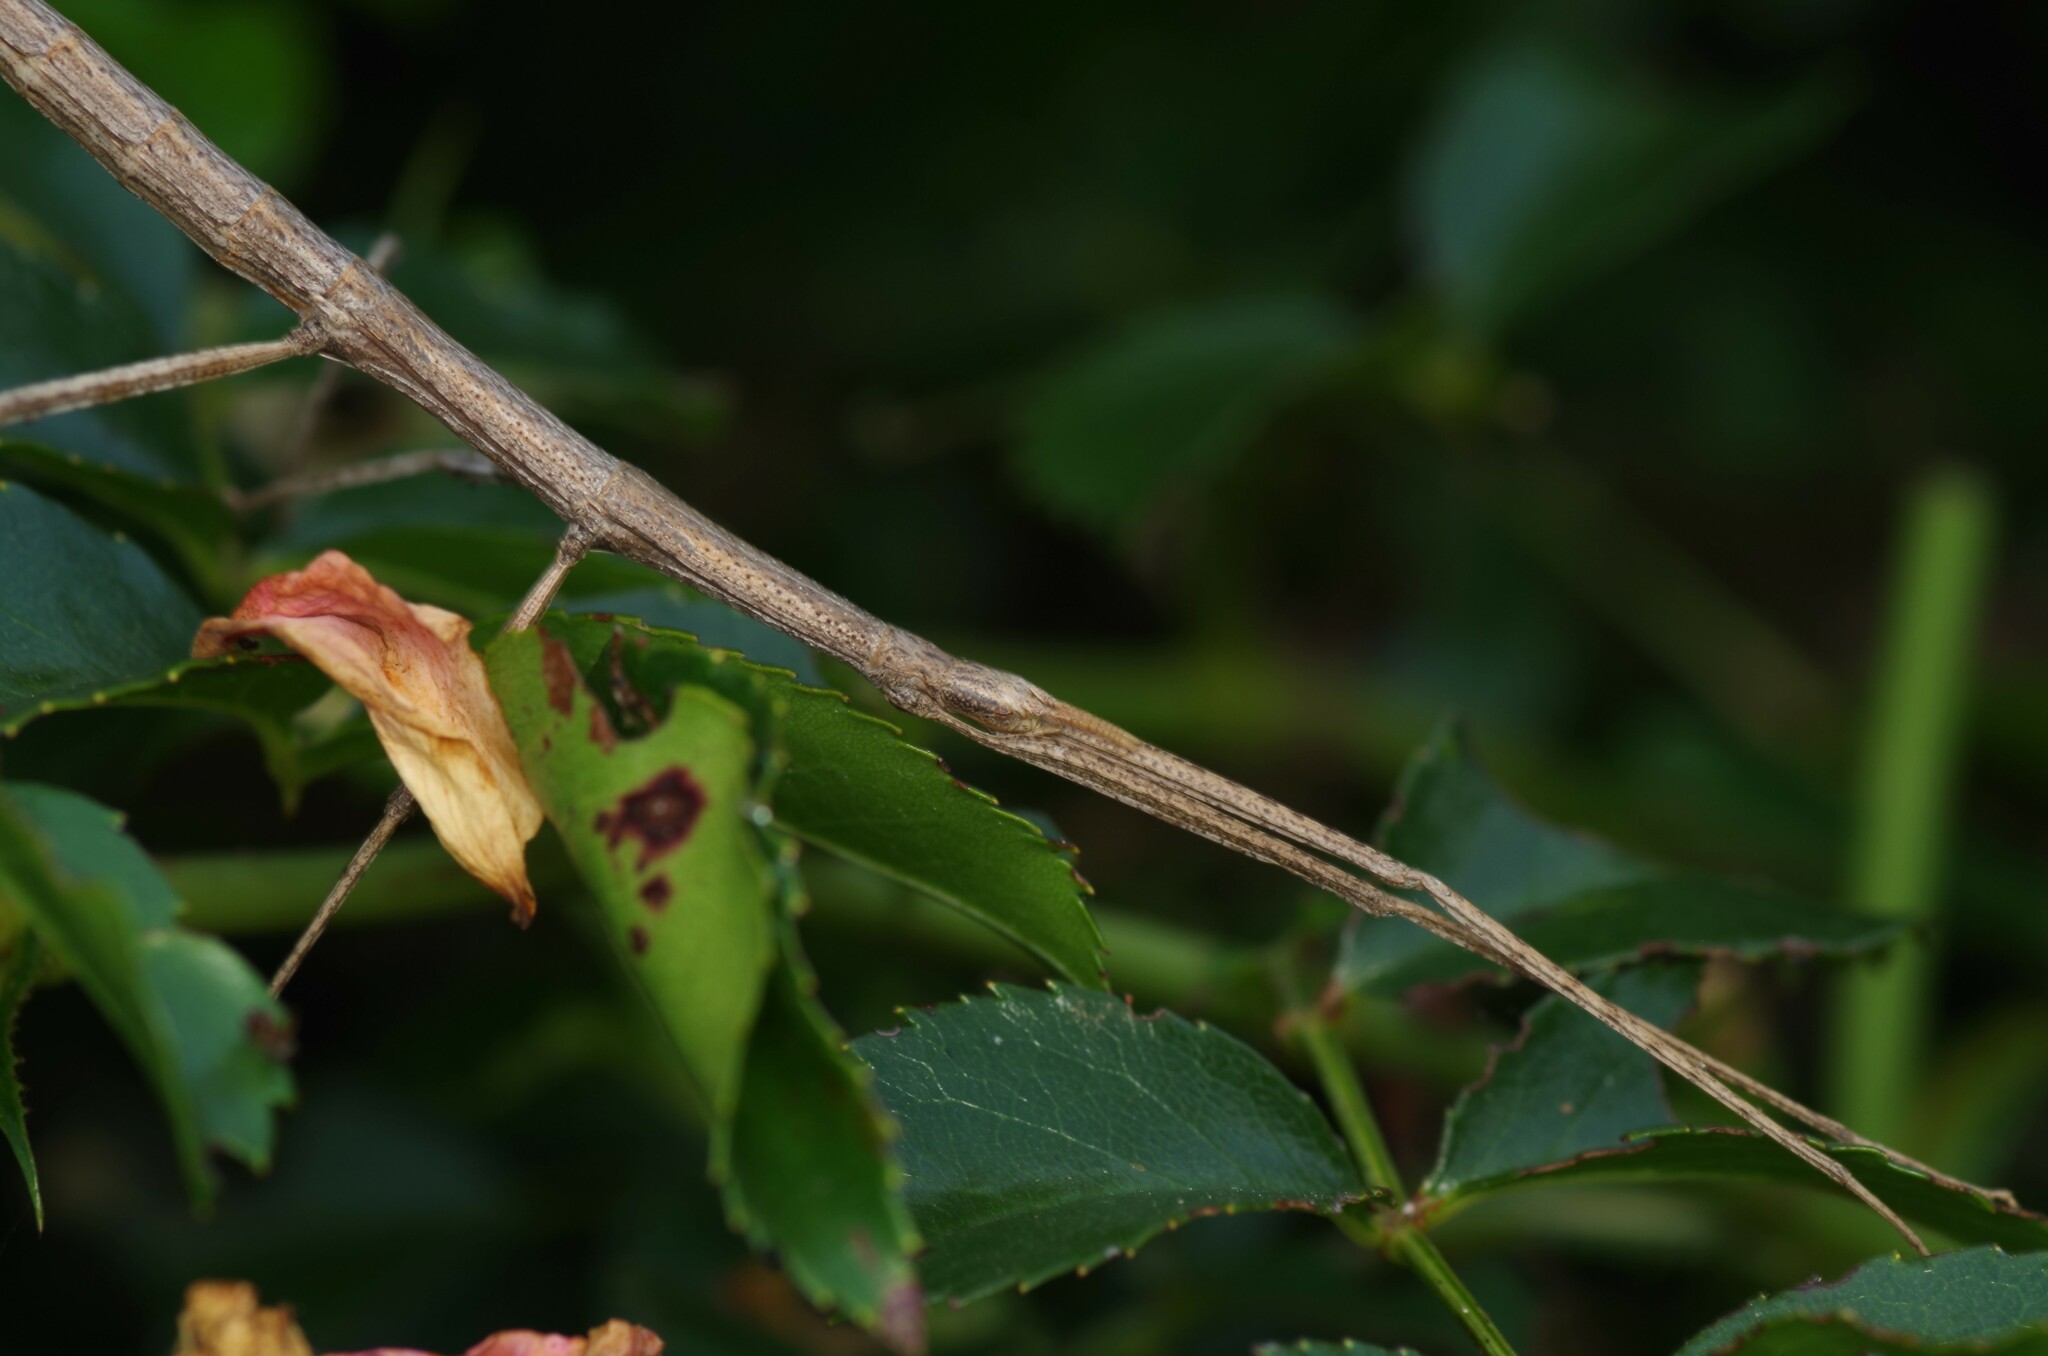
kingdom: Animalia
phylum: Arthropoda
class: Insecta
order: Phasmida
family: Bacillidae
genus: Clonopsis
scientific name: Clonopsis gallica
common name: French stick insect
